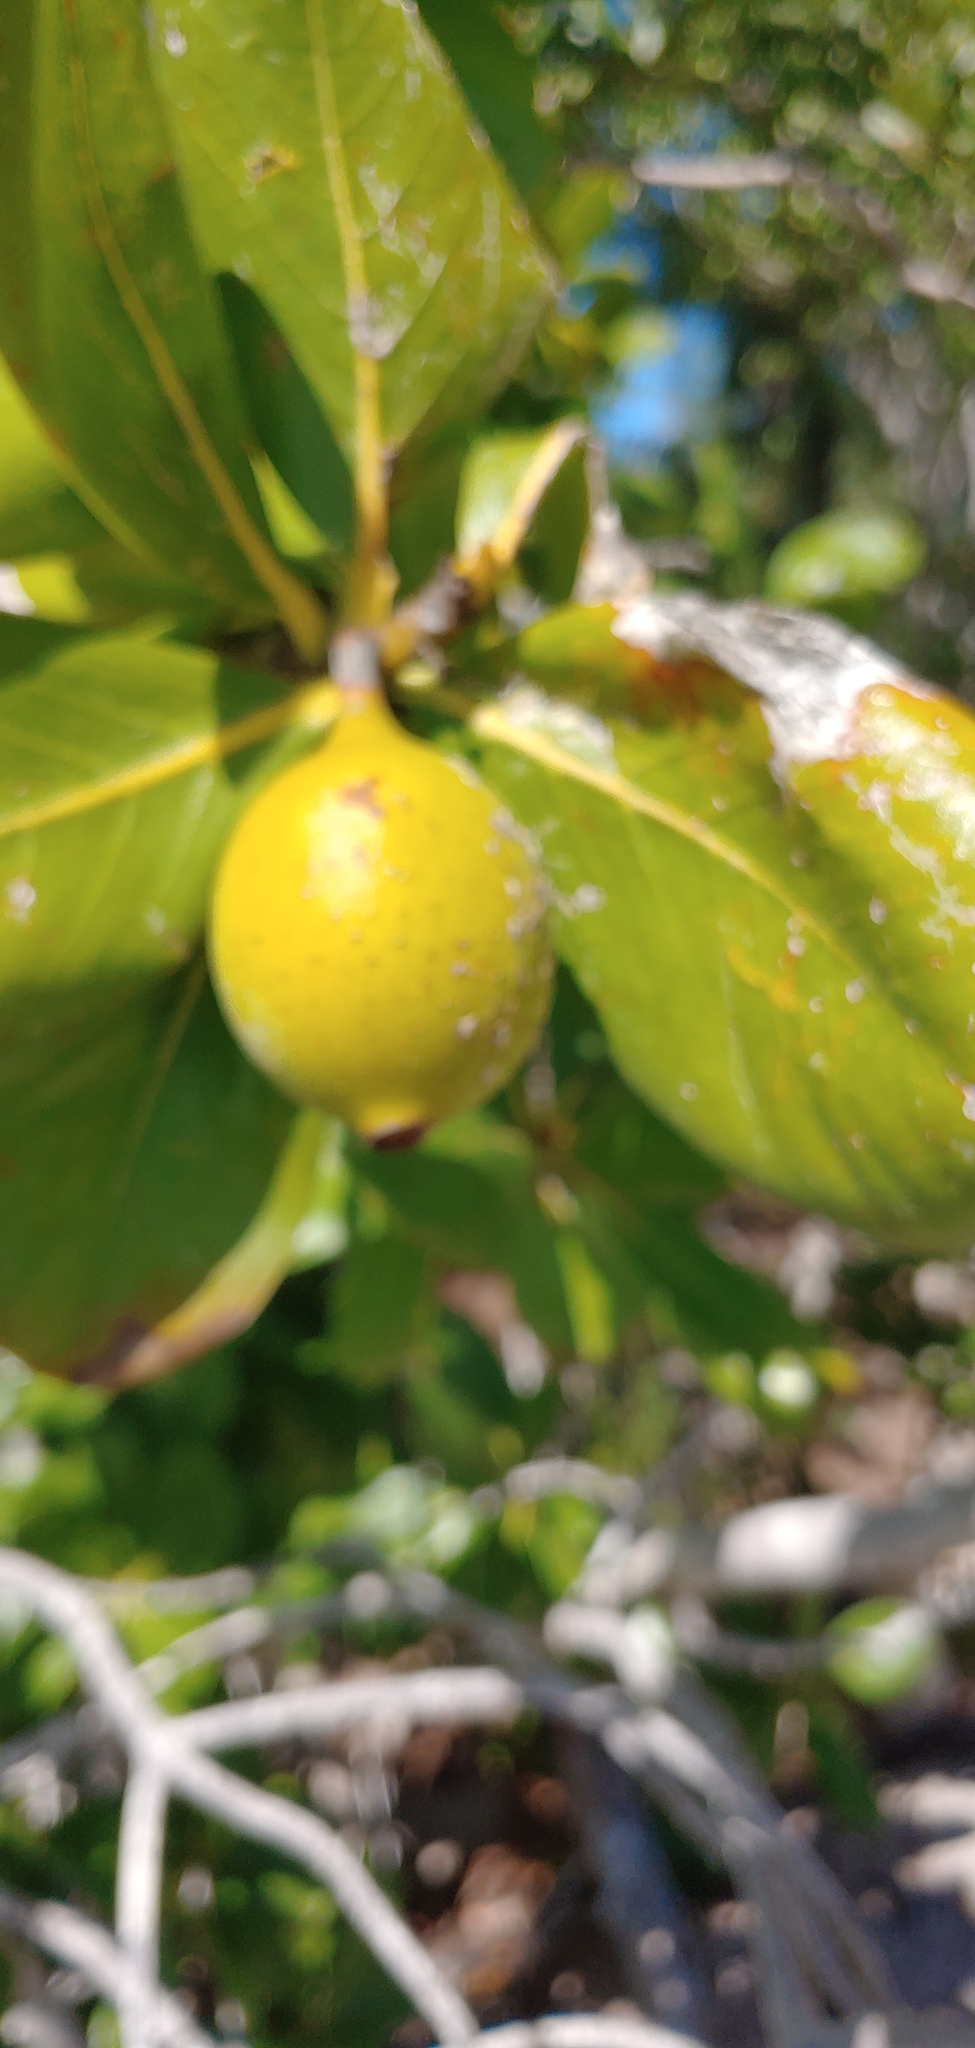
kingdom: Plantae
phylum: Tracheophyta
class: Magnoliopsida
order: Gentianales
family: Rubiaceae
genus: Casasia
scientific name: Casasia clusiifolia
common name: Seven-year apple
